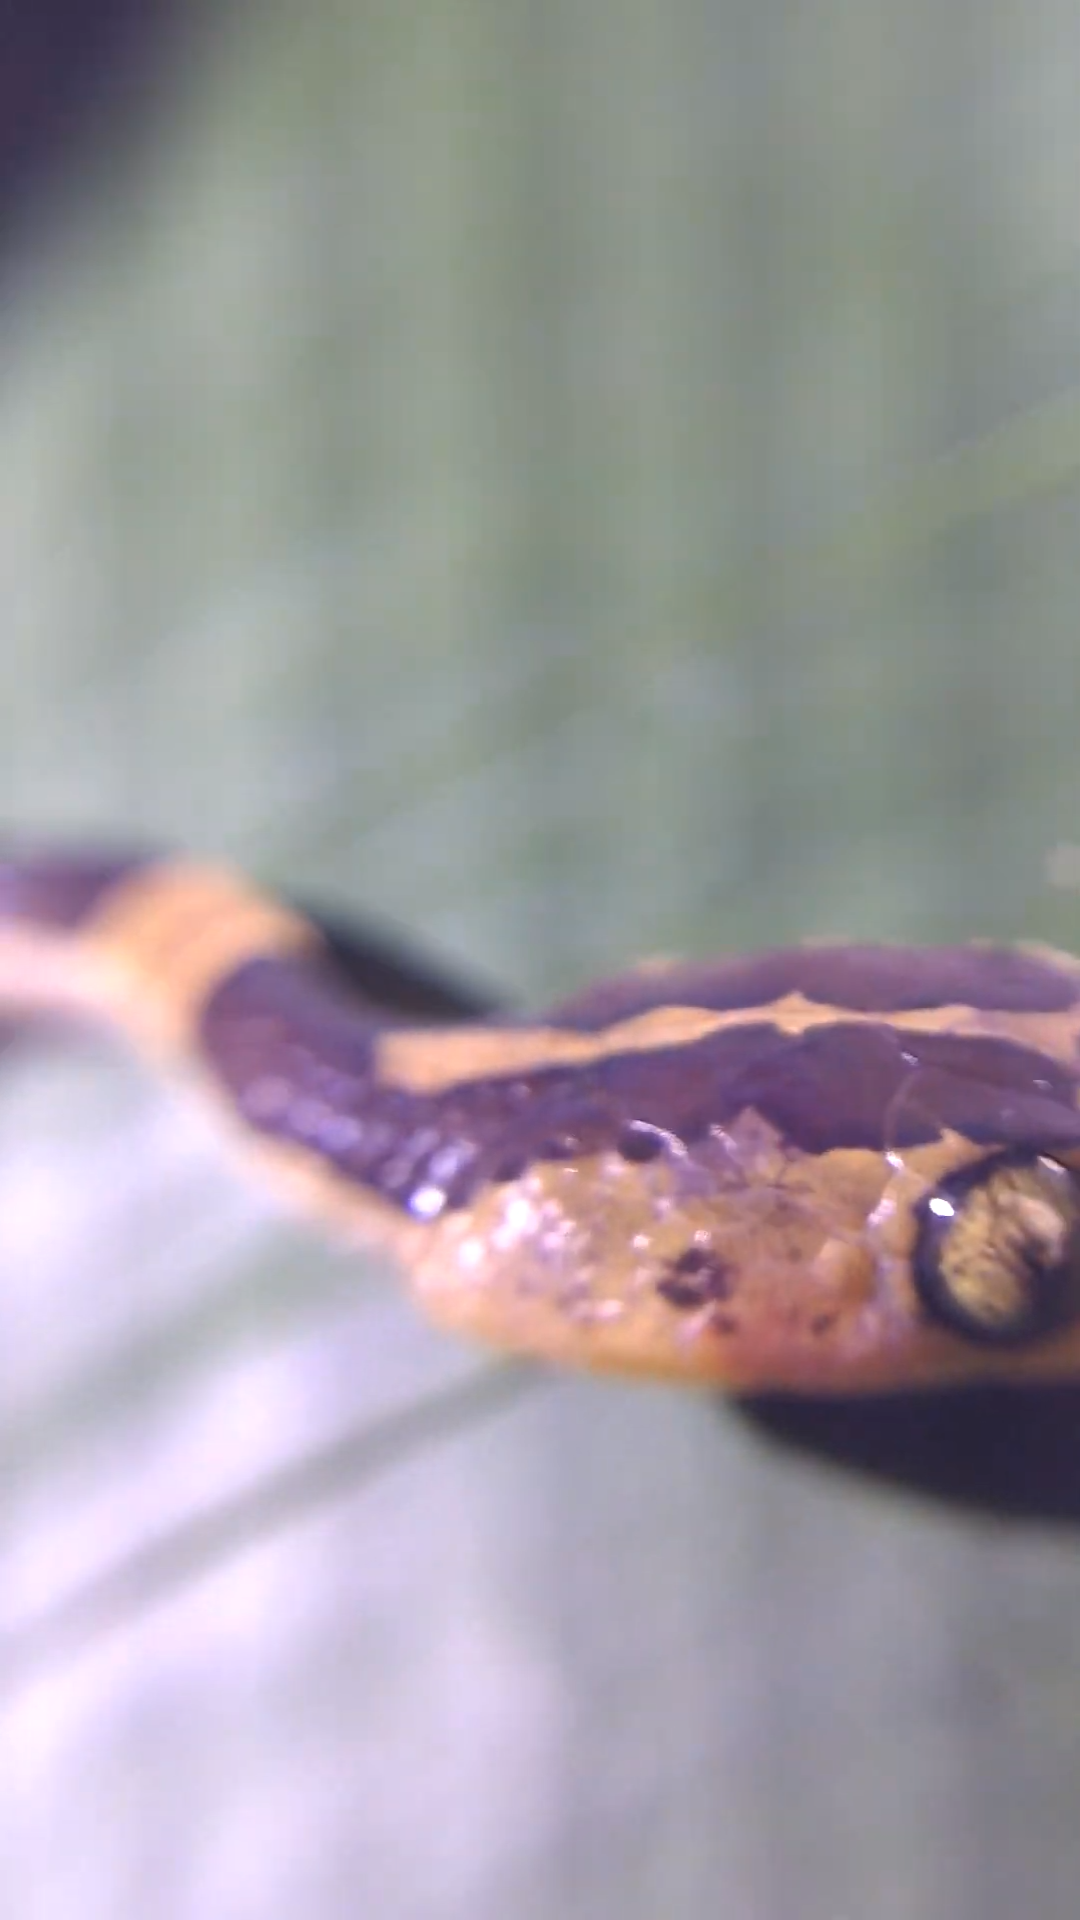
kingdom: Animalia
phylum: Chordata
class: Squamata
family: Colubridae
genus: Imantodes
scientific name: Imantodes cenchoa
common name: Blunthead tree snake
